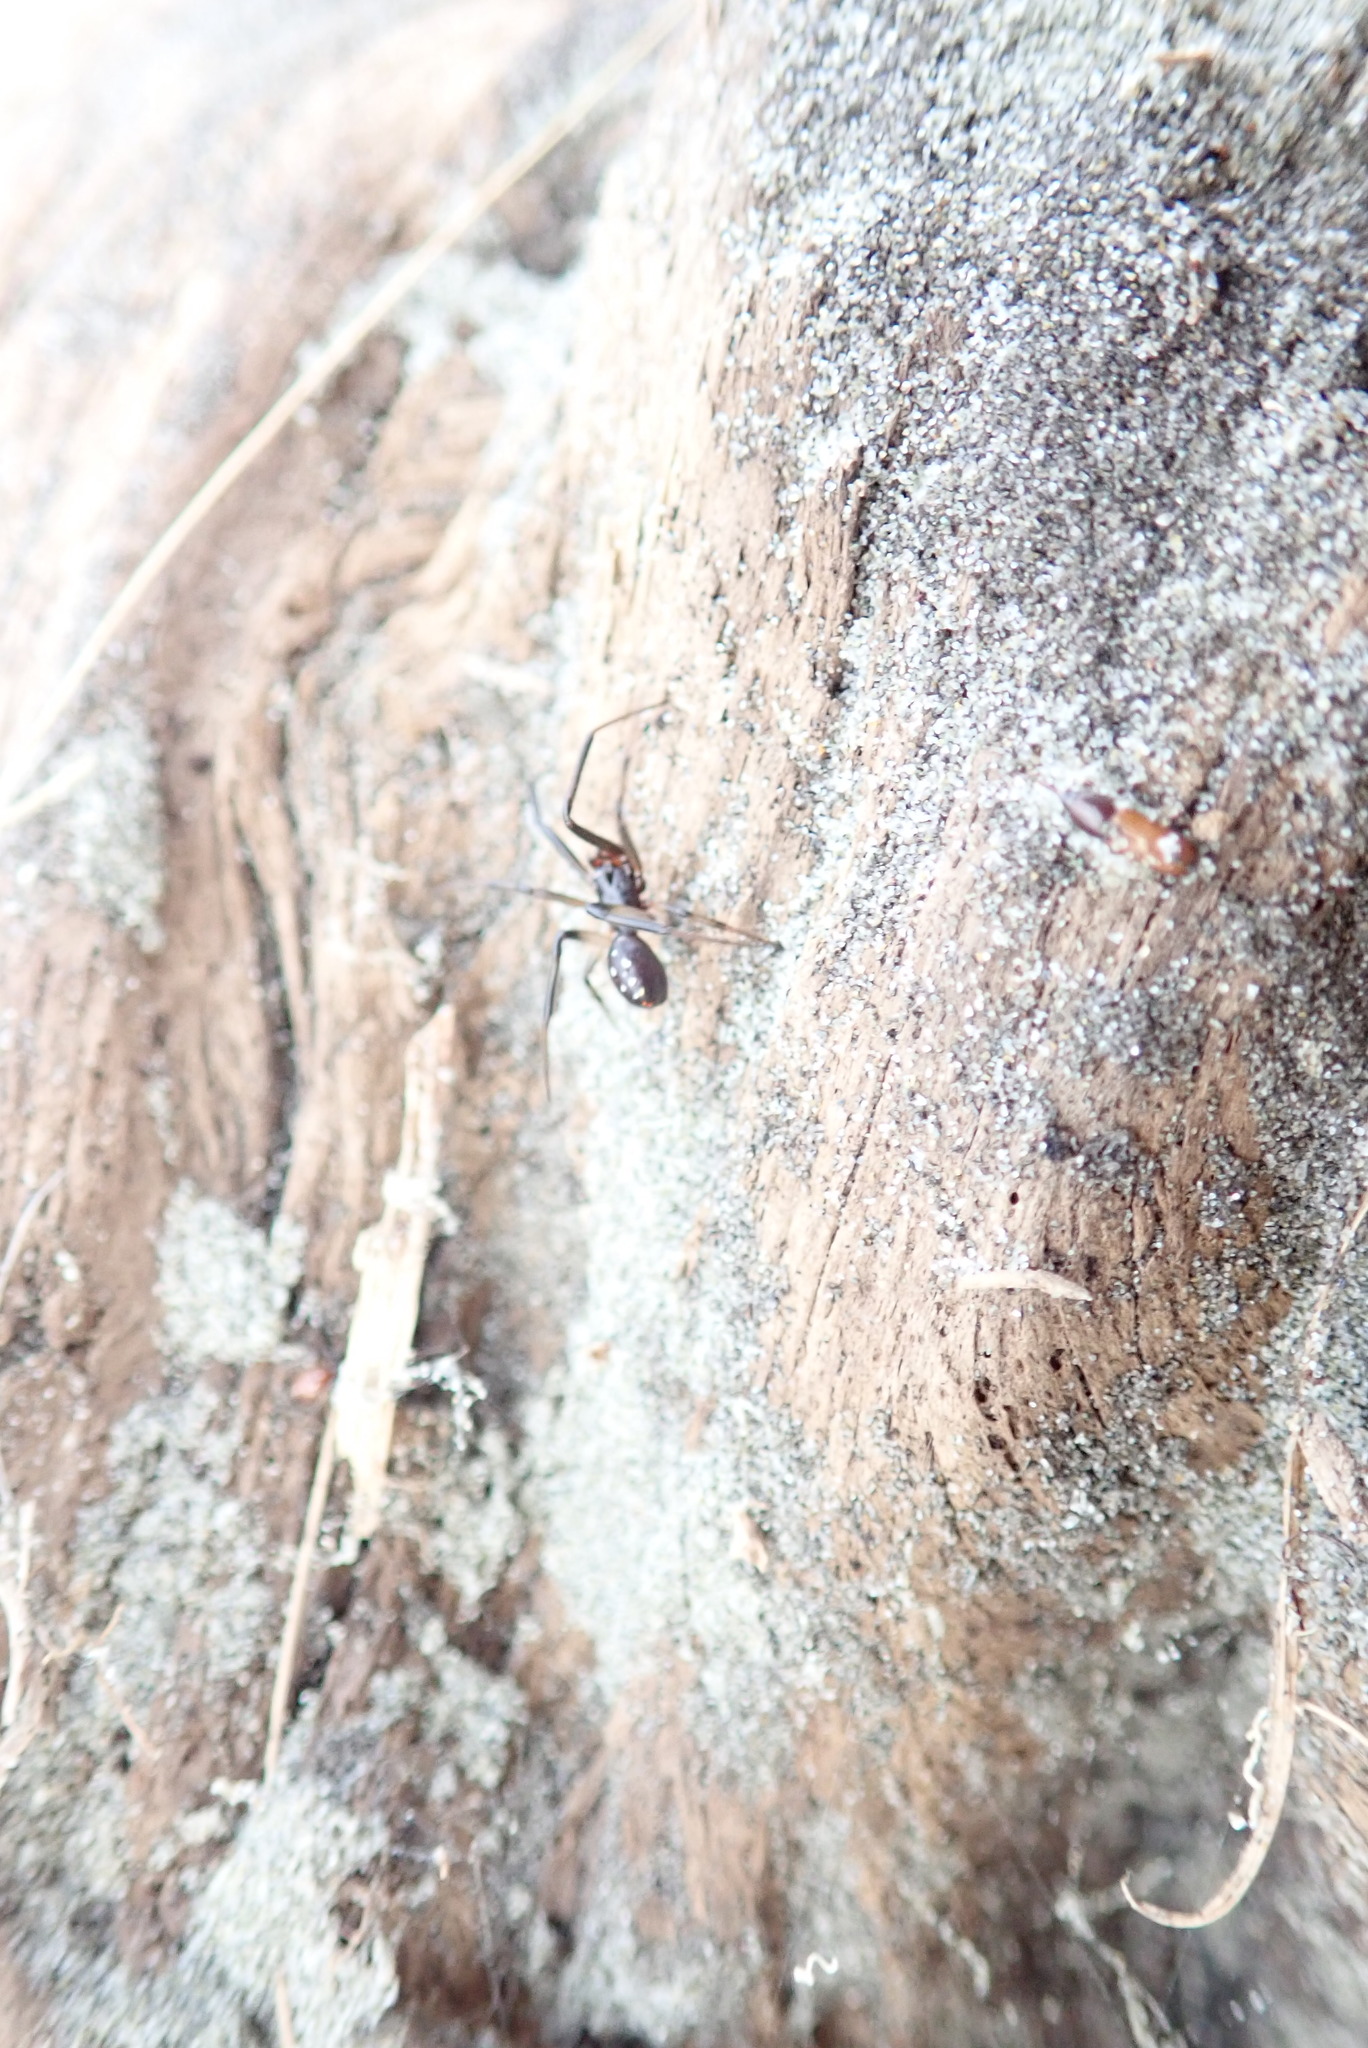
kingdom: Animalia
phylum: Arthropoda
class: Arachnida
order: Araneae
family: Theridiidae
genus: Steatoda
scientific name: Steatoda capensis
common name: Cobweb weaver
